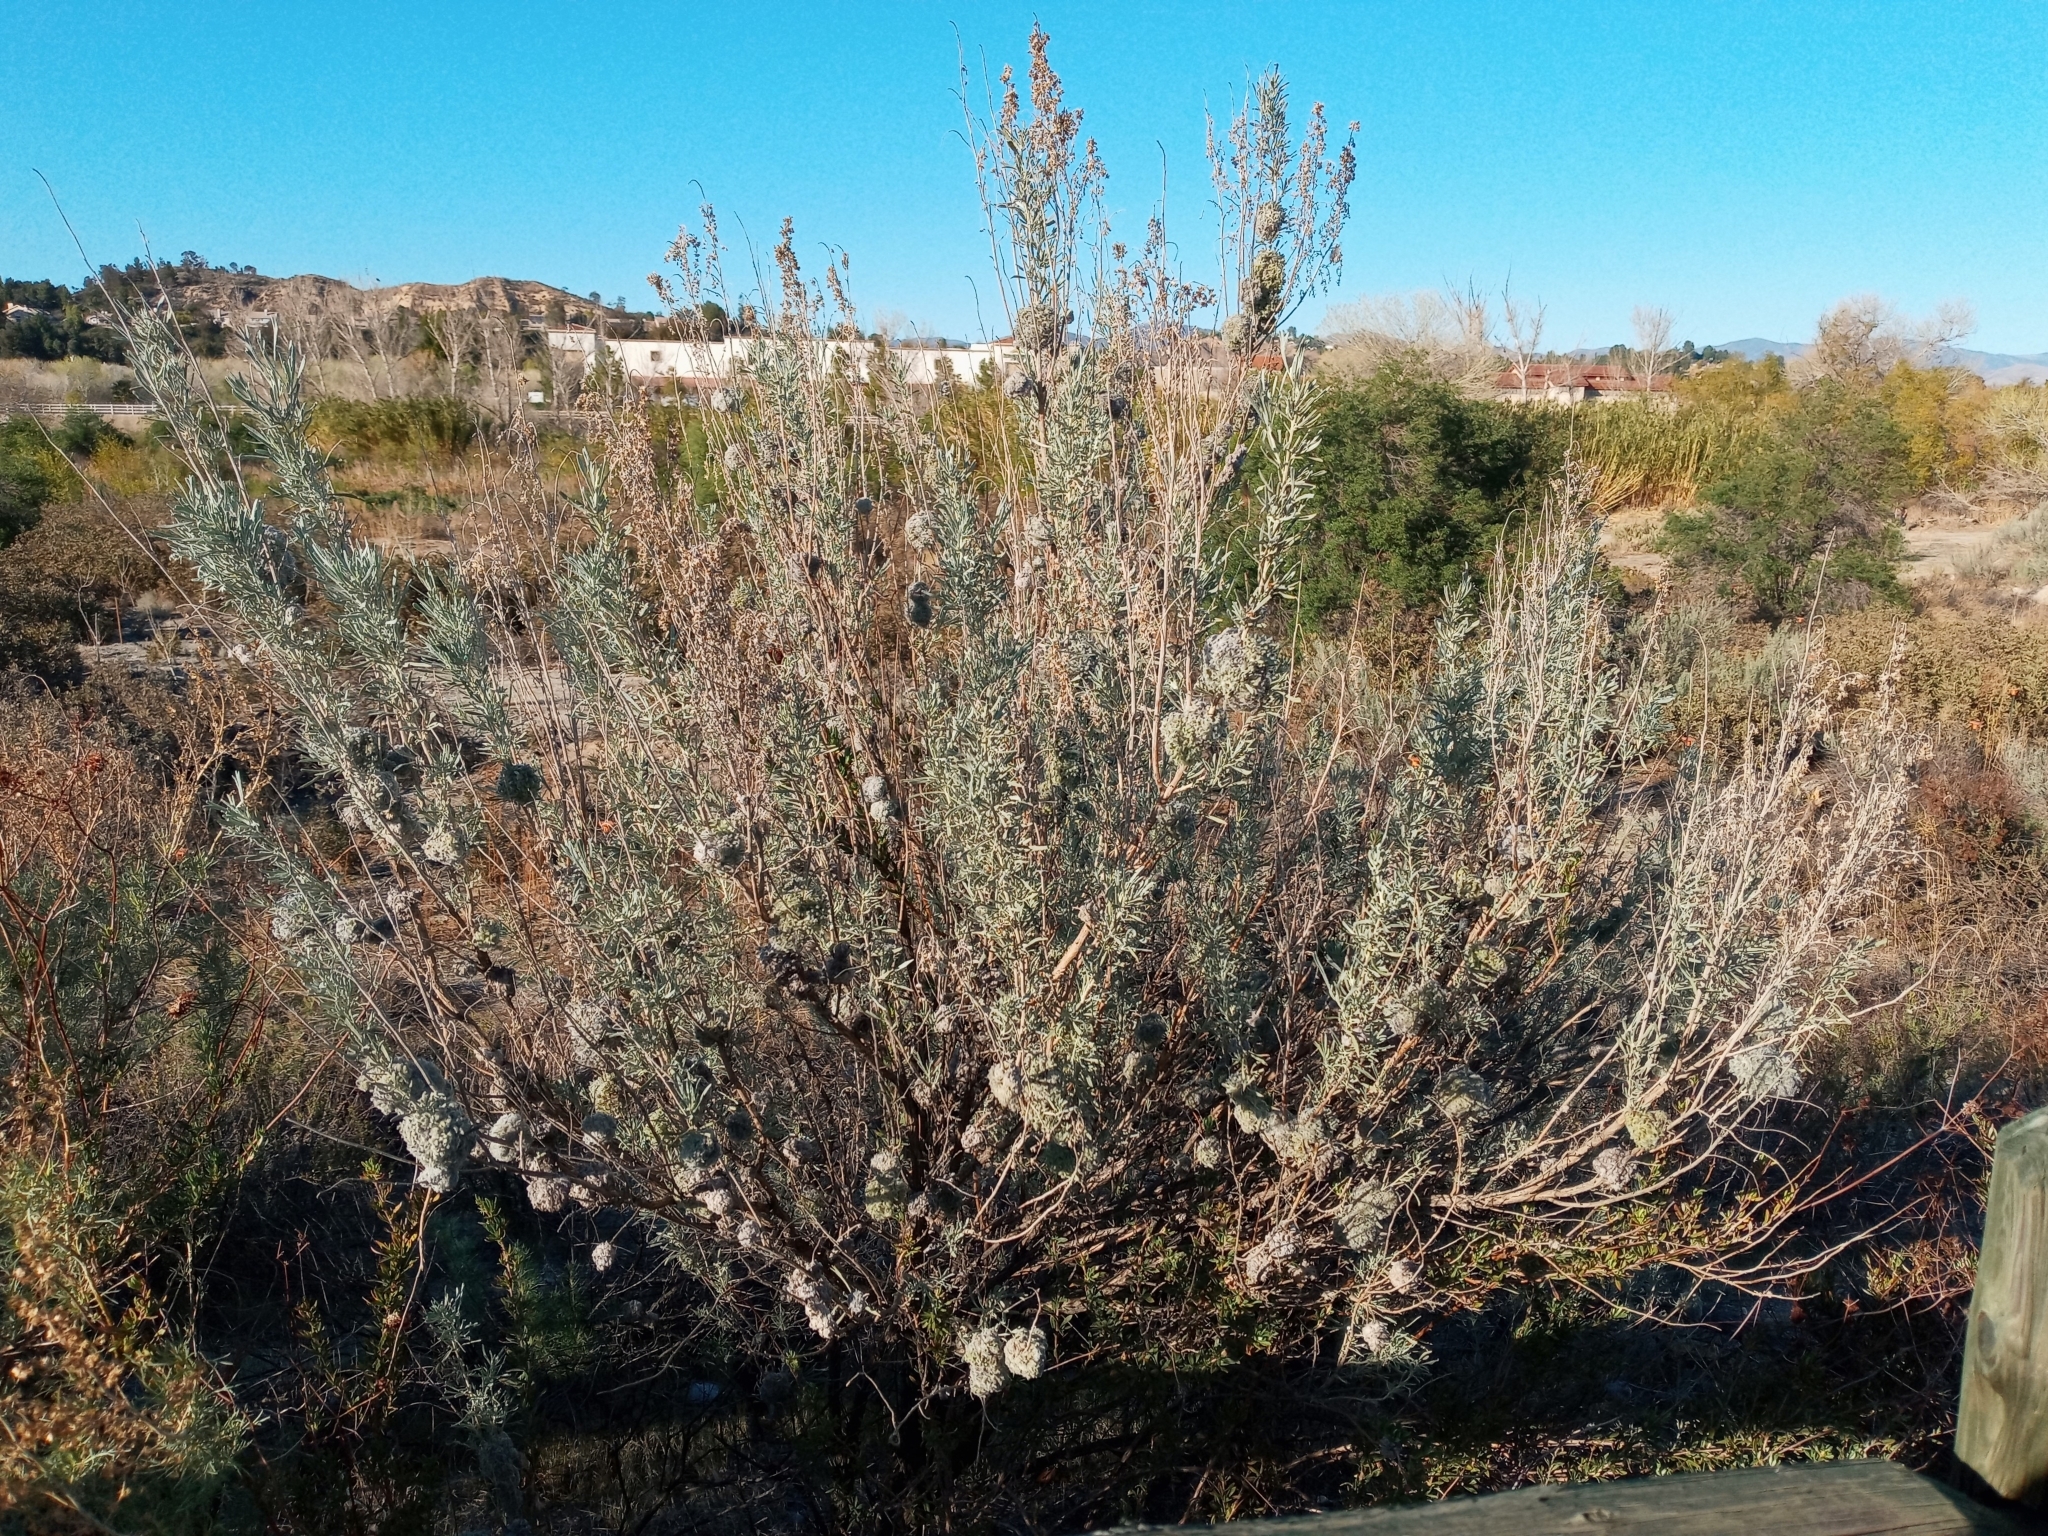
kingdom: Animalia
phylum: Arthropoda
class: Insecta
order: Diptera
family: Cecidomyiidae
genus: Rhopalomyia
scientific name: Rhopalomyia medusirrasa
